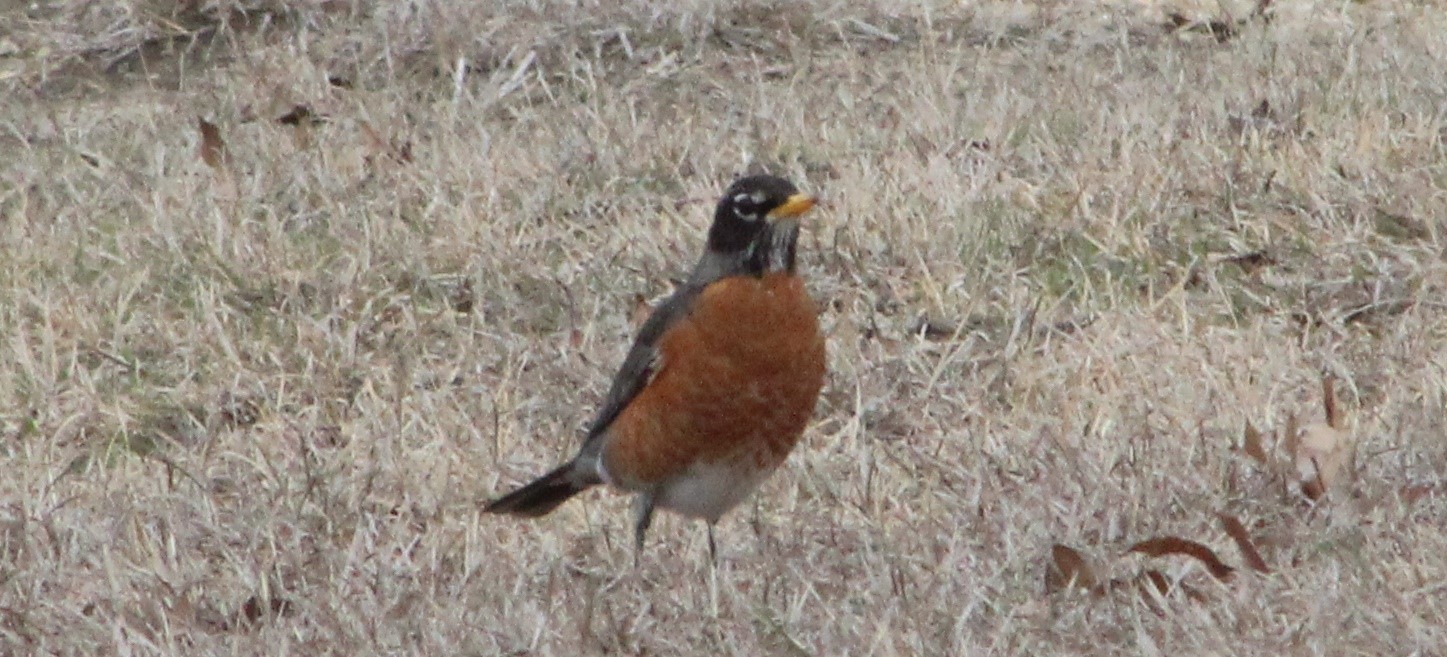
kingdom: Animalia
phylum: Chordata
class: Aves
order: Passeriformes
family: Turdidae
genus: Turdus
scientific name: Turdus migratorius
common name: American robin
